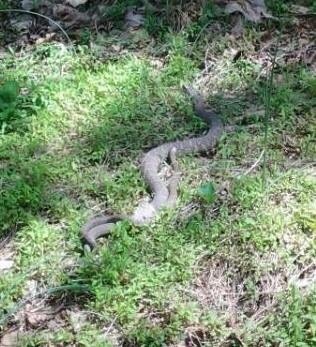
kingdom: Animalia
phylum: Chordata
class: Squamata
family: Colubridae
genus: Nerodia
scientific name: Nerodia sipedon
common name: Northern water snake
